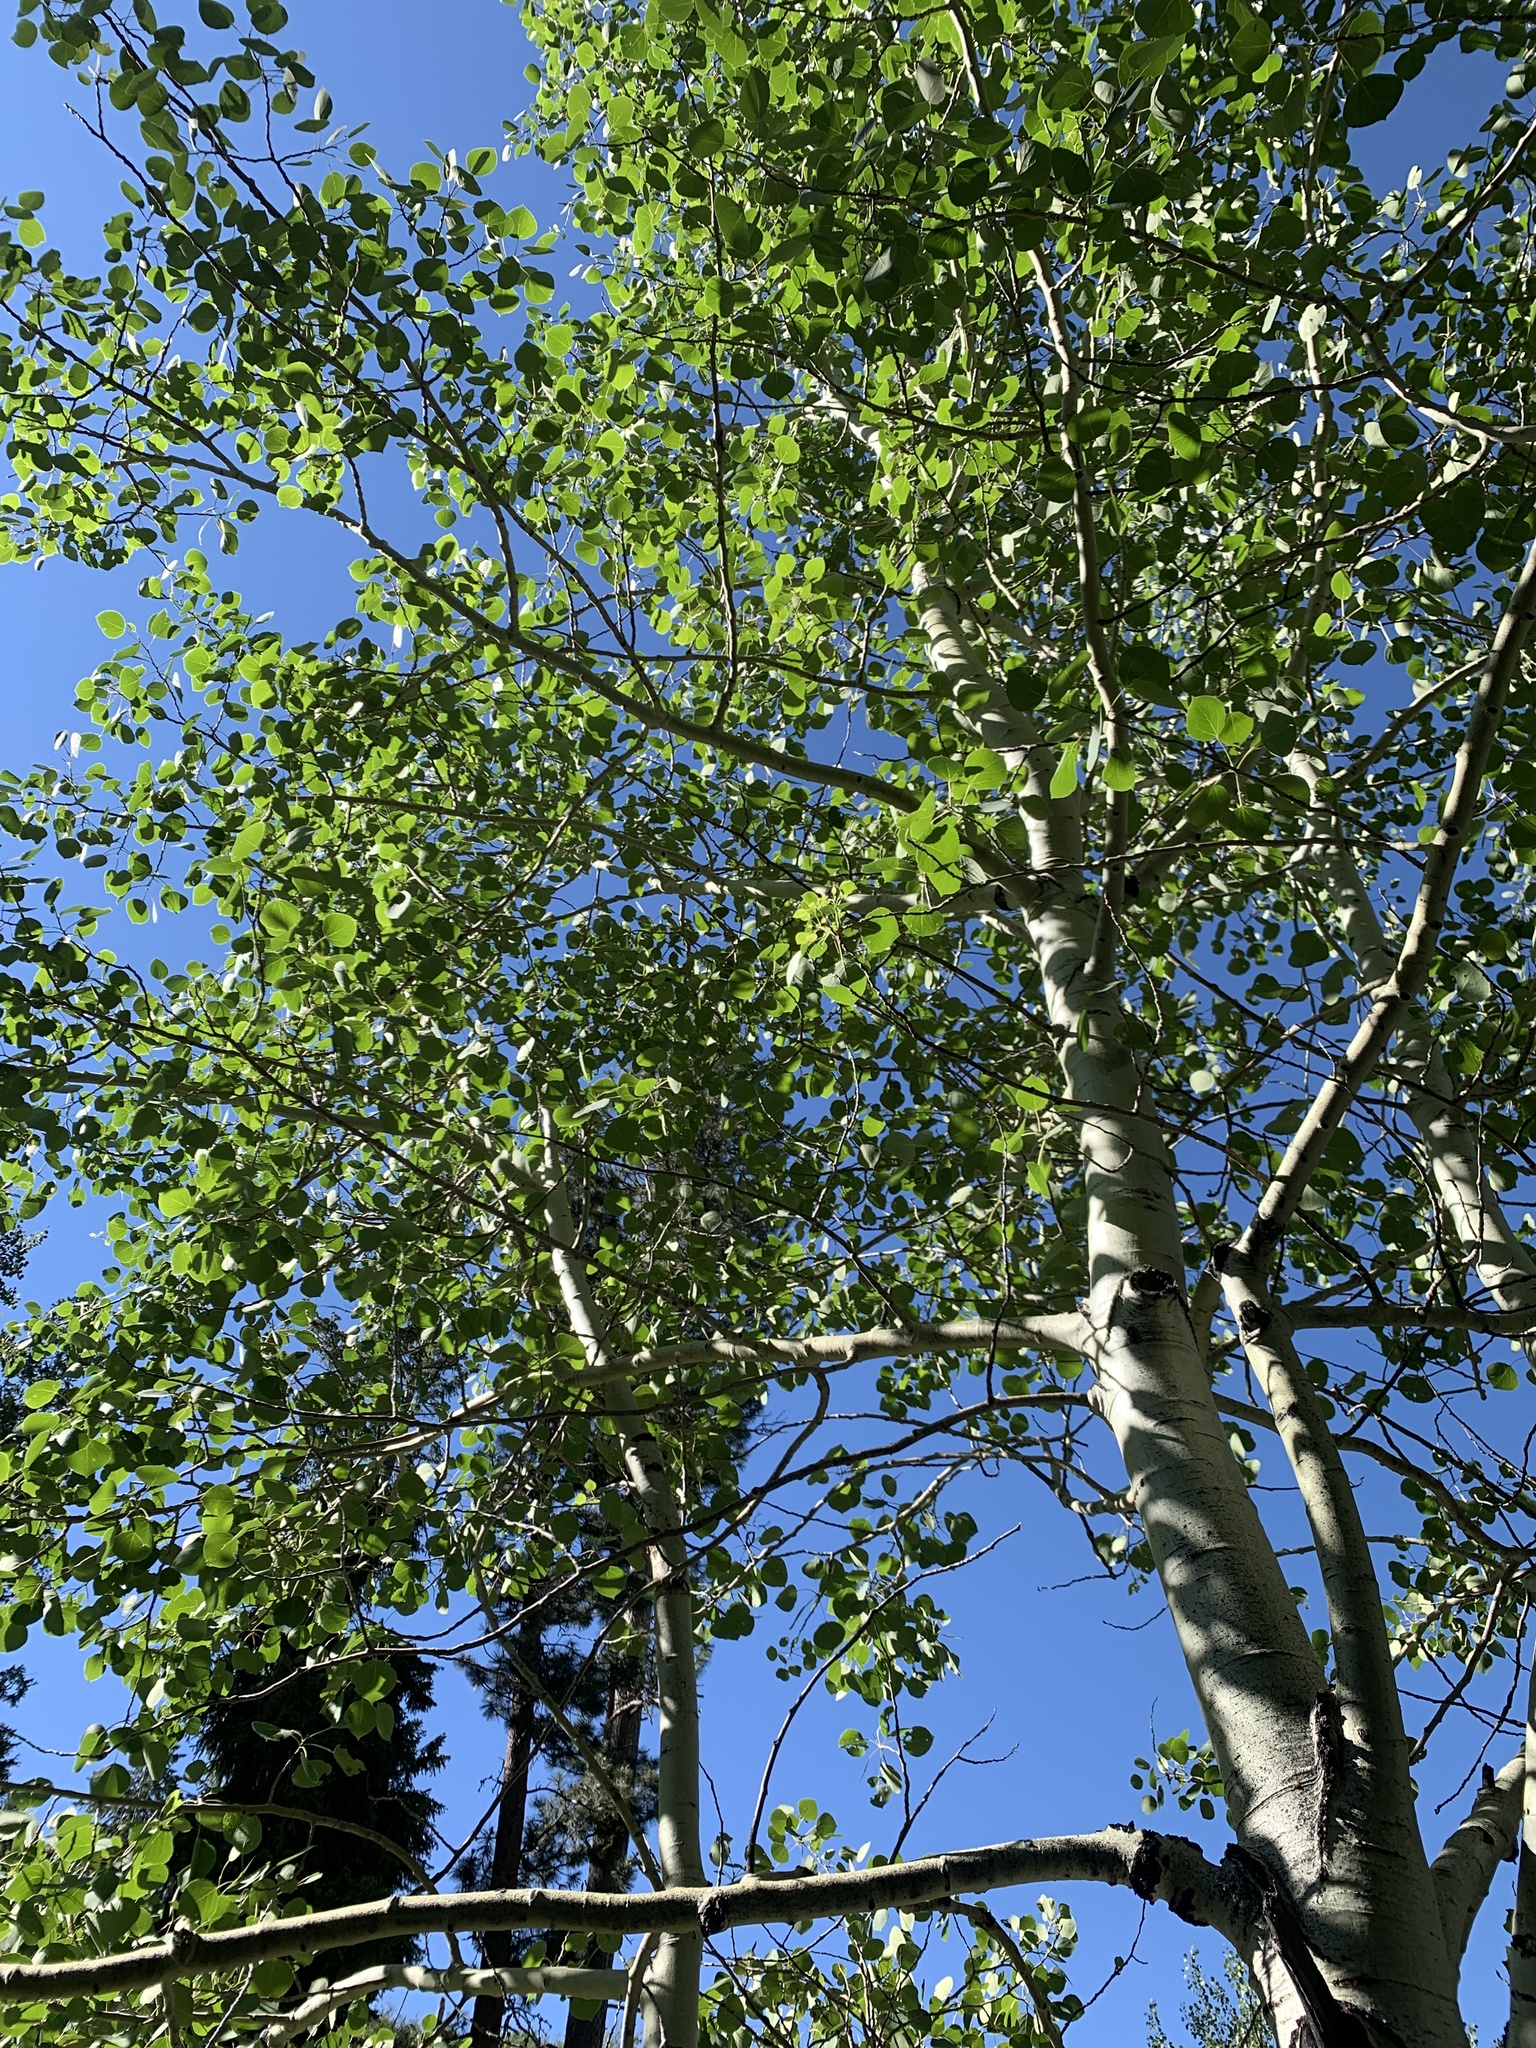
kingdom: Plantae
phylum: Tracheophyta
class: Magnoliopsida
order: Malpighiales
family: Salicaceae
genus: Populus
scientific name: Populus tremuloides
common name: Quaking aspen
